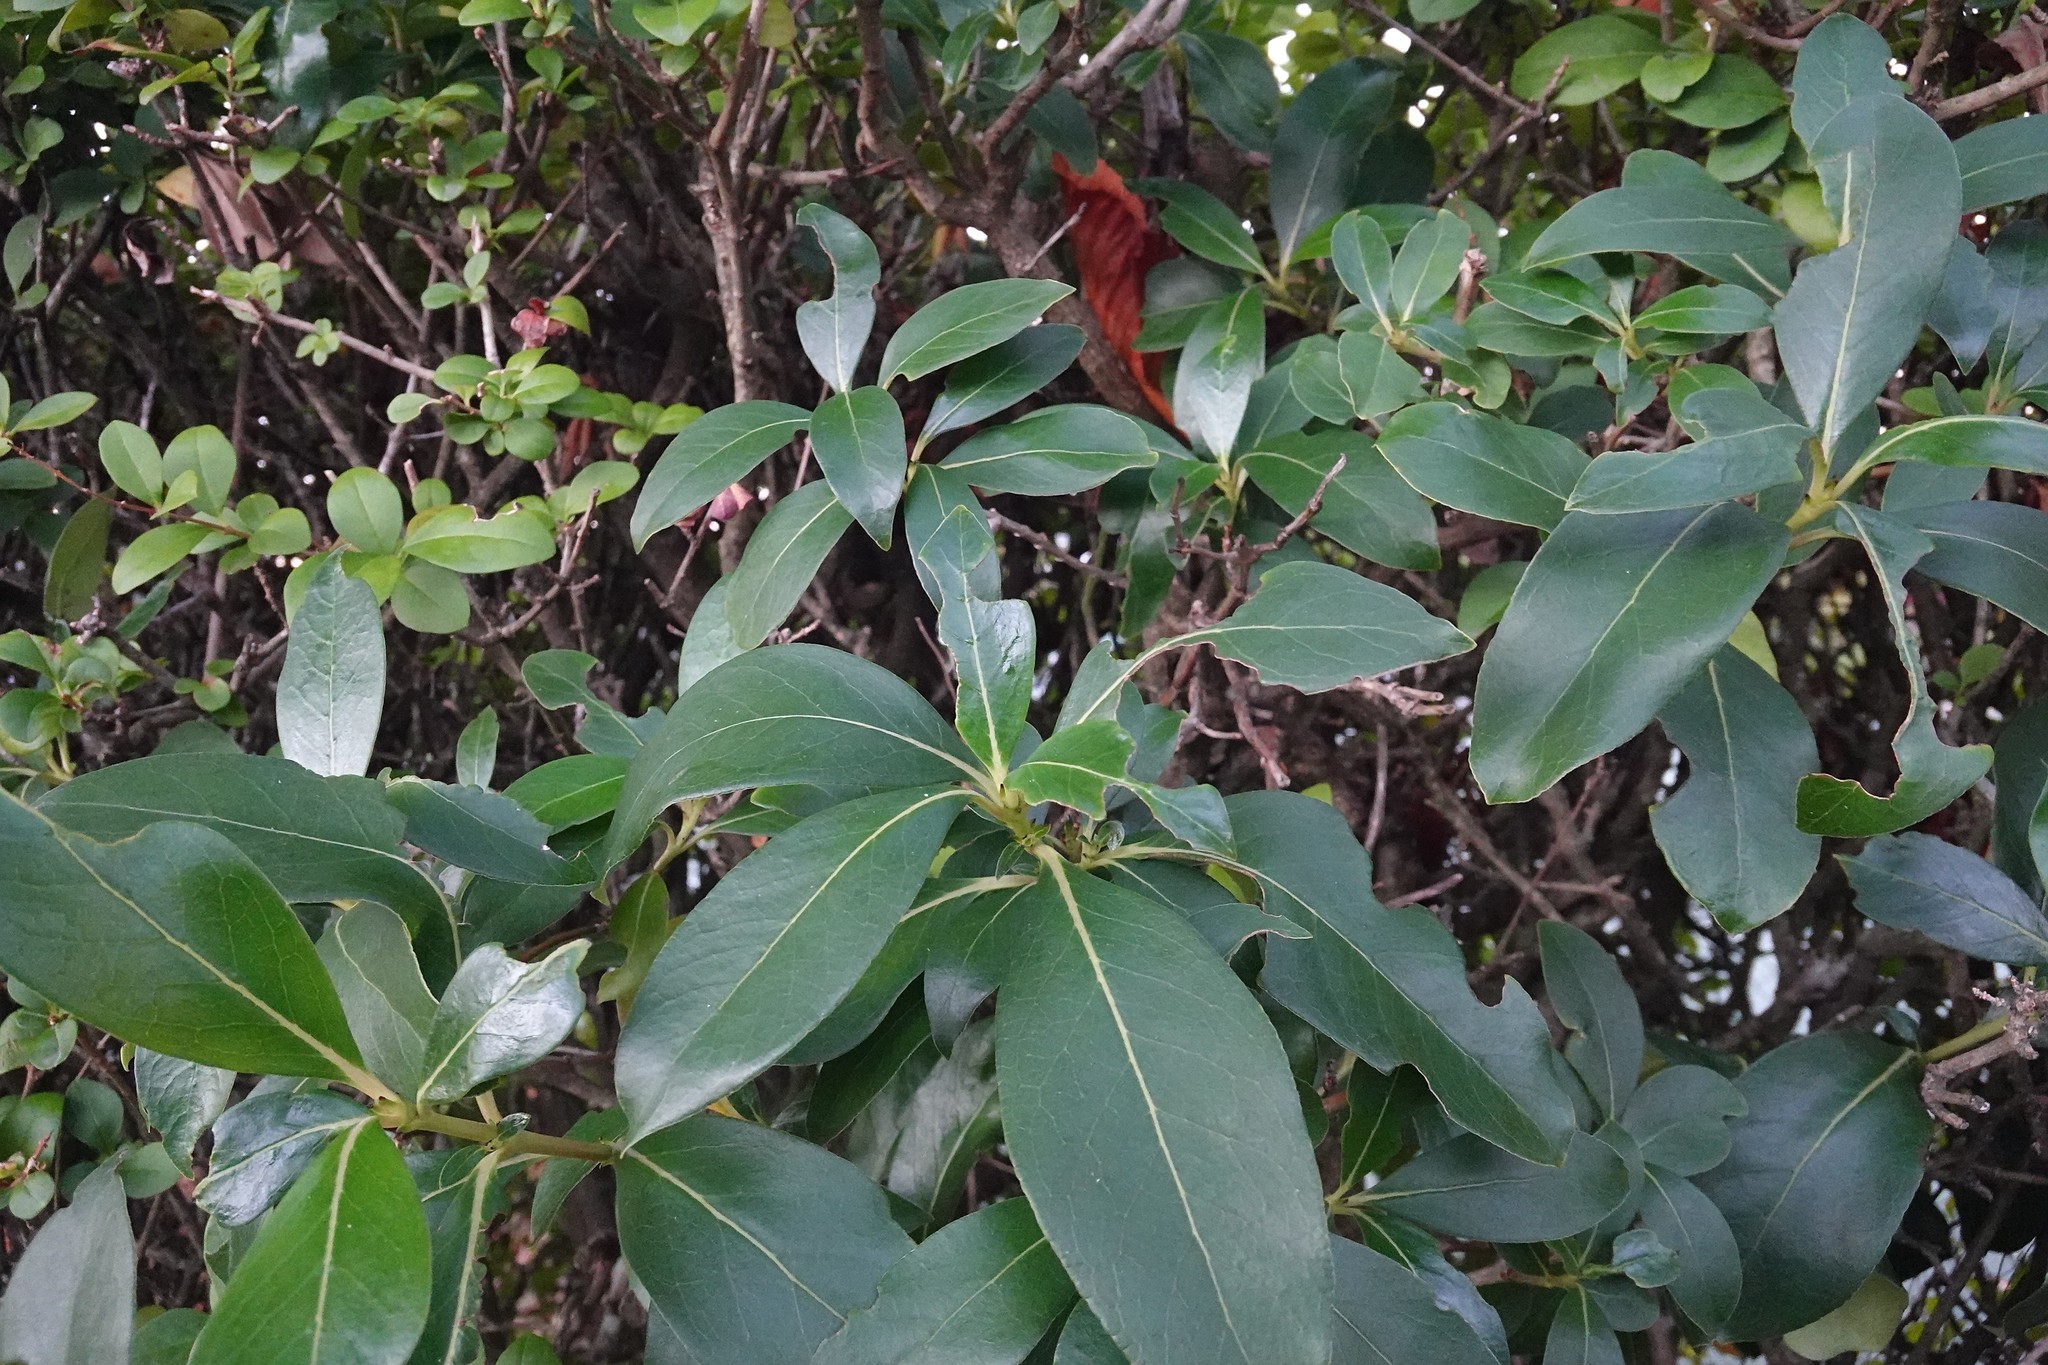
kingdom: Plantae
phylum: Tracheophyta
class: Magnoliopsida
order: Gentianales
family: Rubiaceae
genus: Coprosma
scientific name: Coprosma robusta
